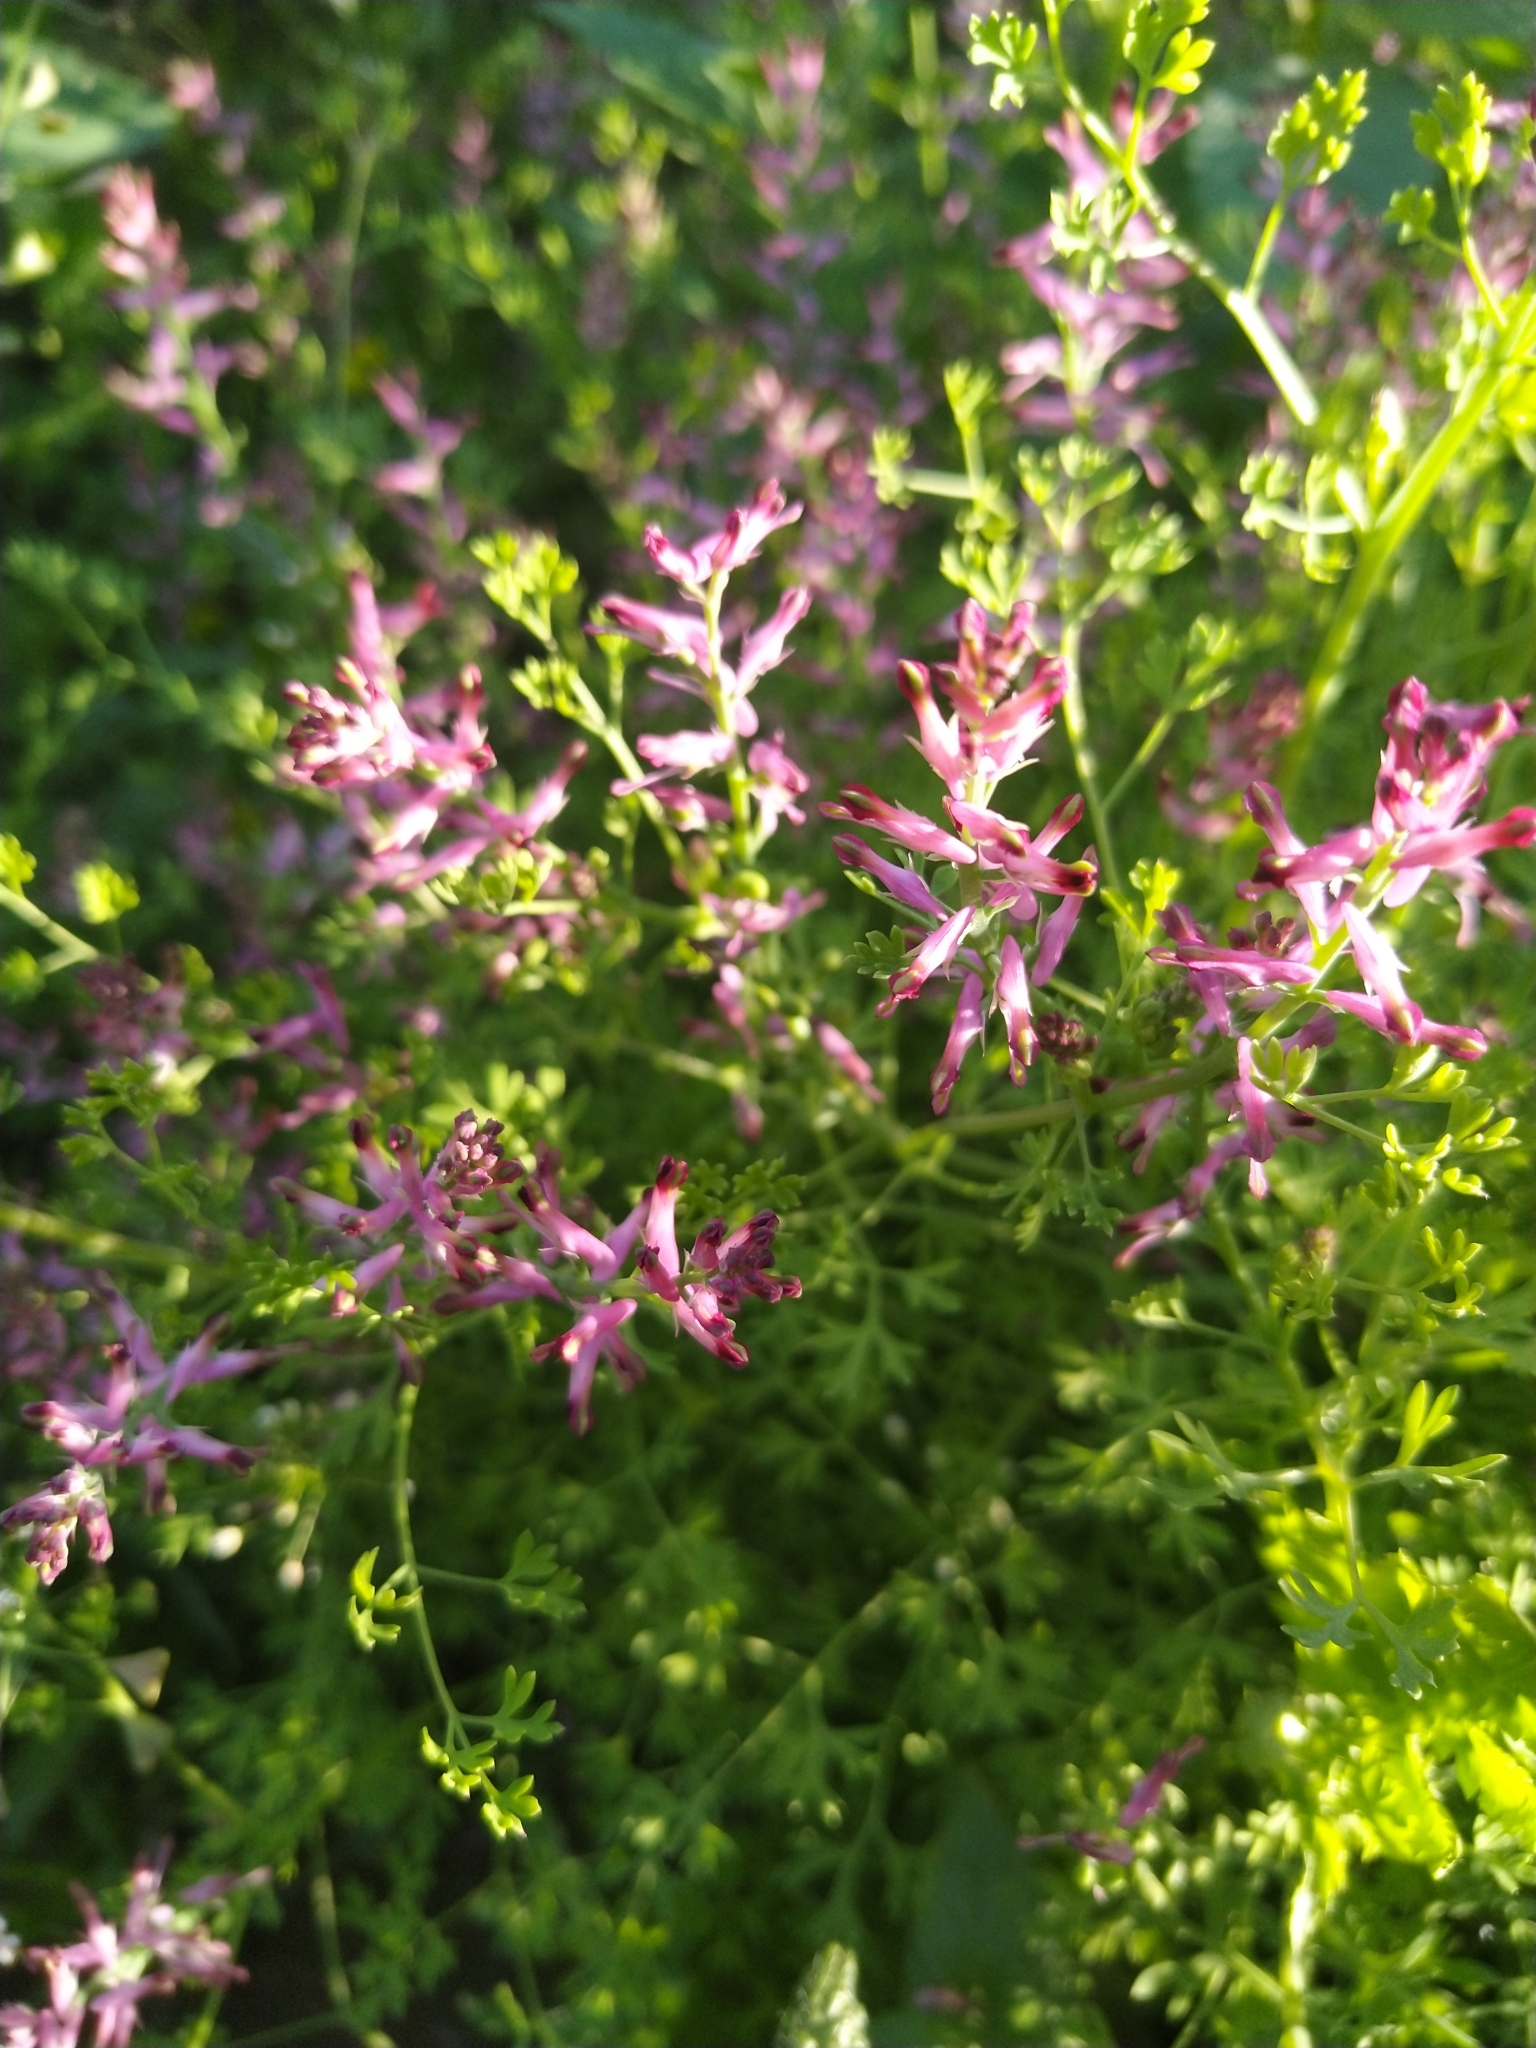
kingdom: Plantae
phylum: Tracheophyta
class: Magnoliopsida
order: Ranunculales
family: Papaveraceae
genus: Fumaria
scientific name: Fumaria officinalis
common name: Common fumitory
